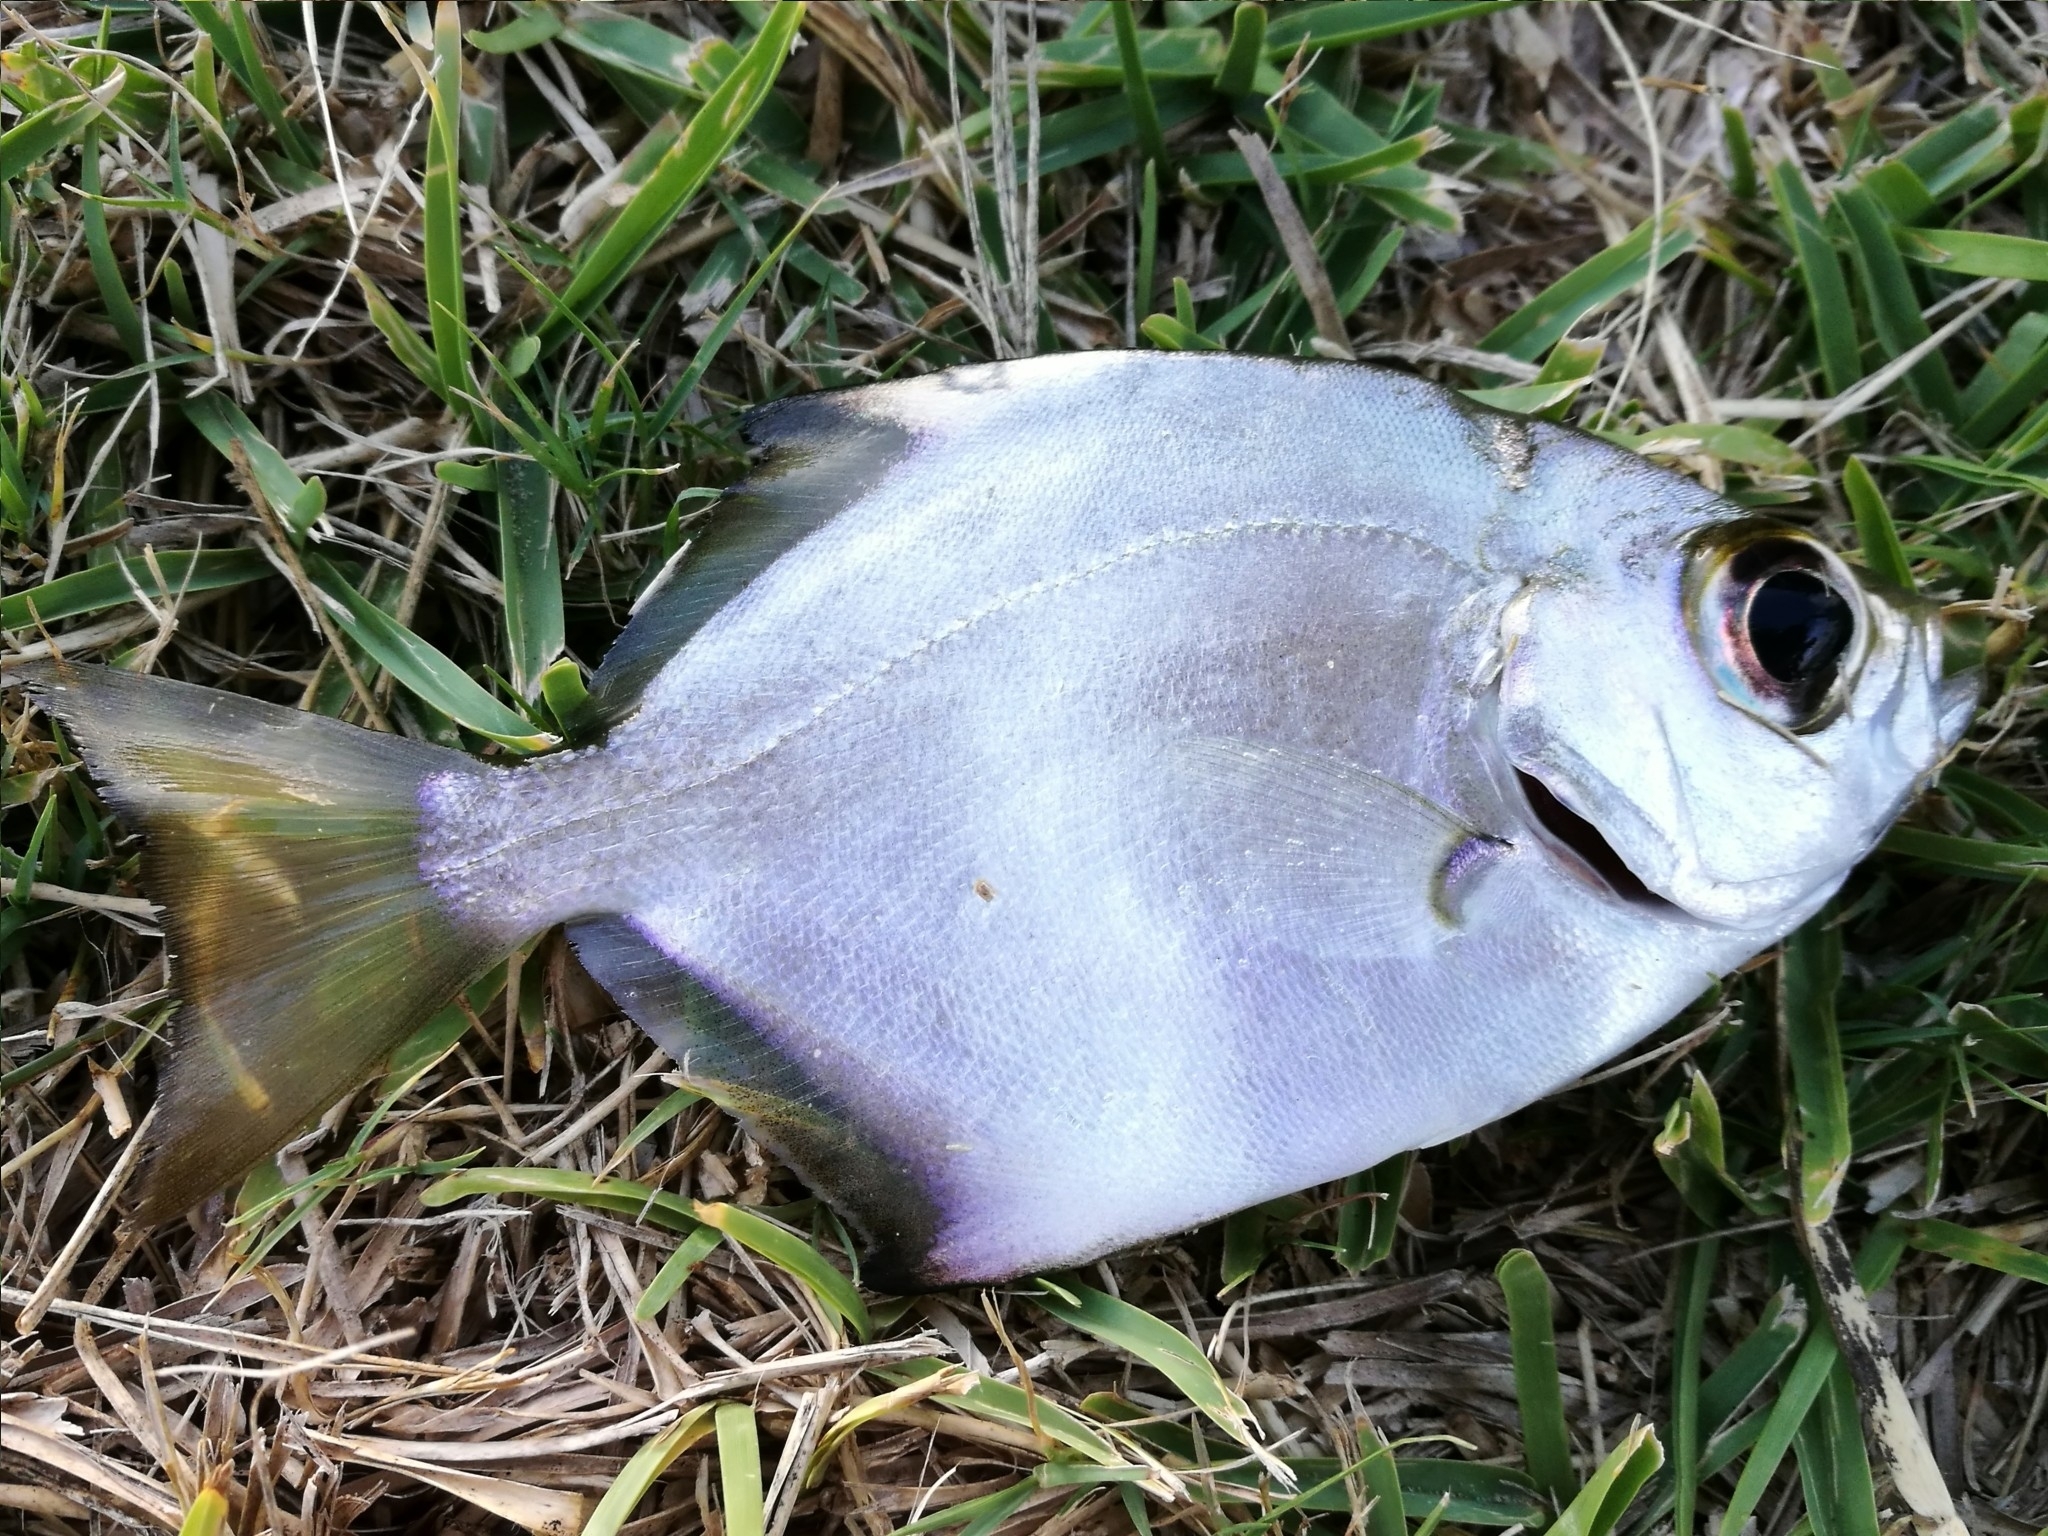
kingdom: Animalia
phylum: Chordata
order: Perciformes
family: Monodactylidae
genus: Monodactylus
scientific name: Monodactylus argenteus
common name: Silver moony
